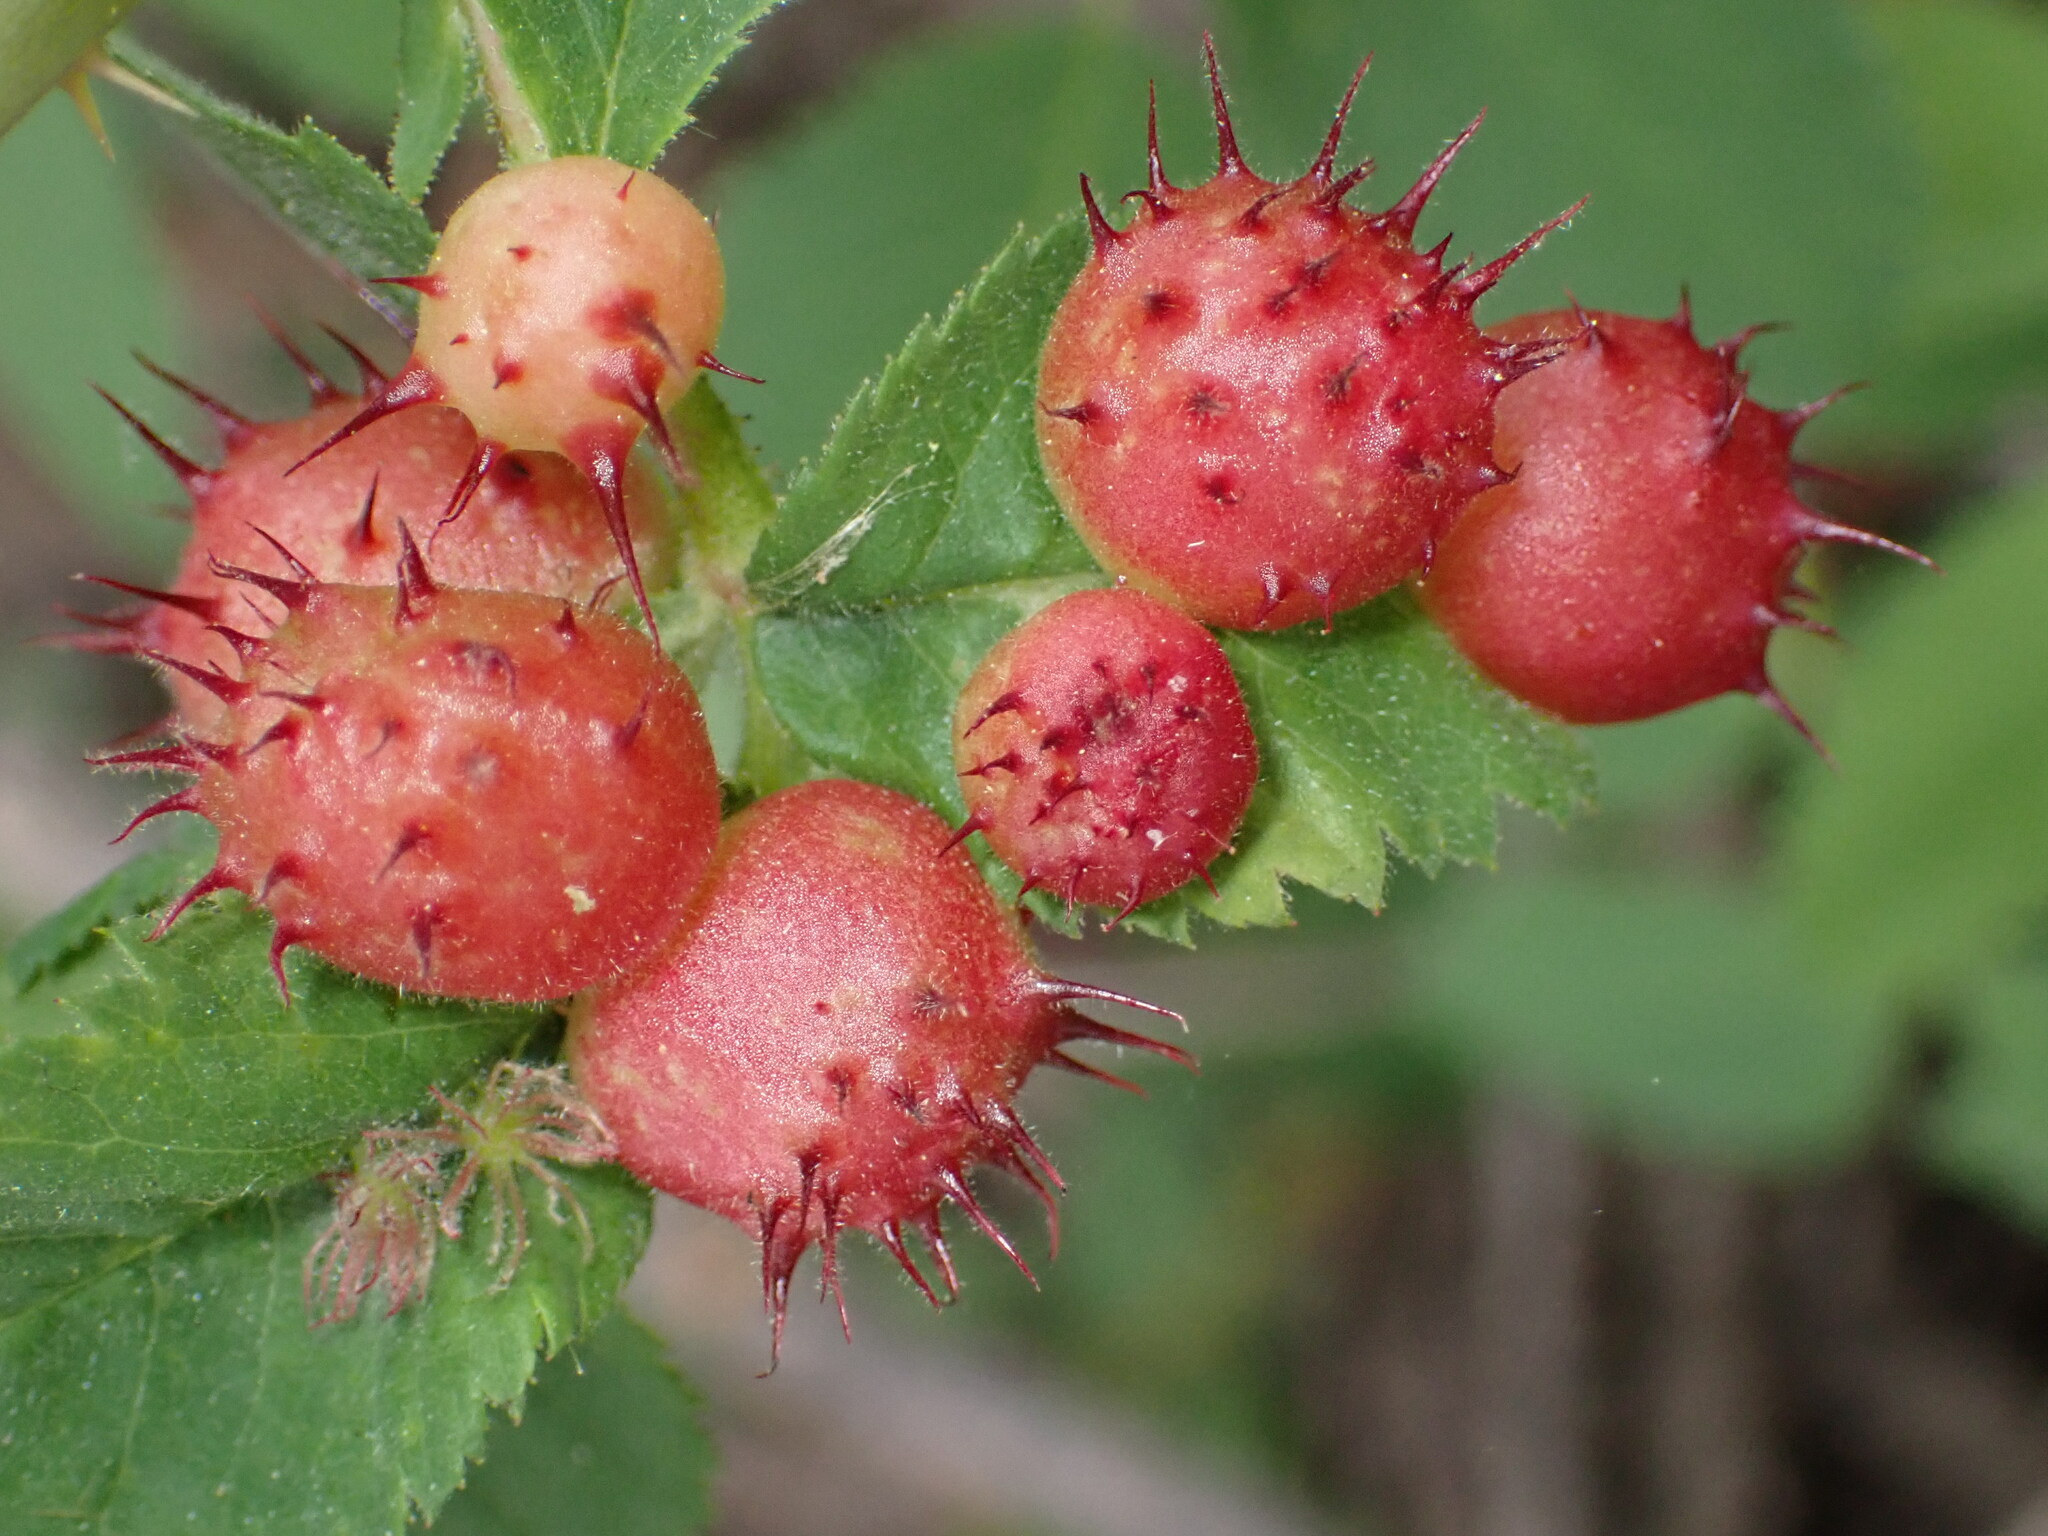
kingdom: Animalia
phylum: Arthropoda
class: Insecta
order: Hymenoptera
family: Cynipidae
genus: Diplolepis
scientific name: Diplolepis polita
